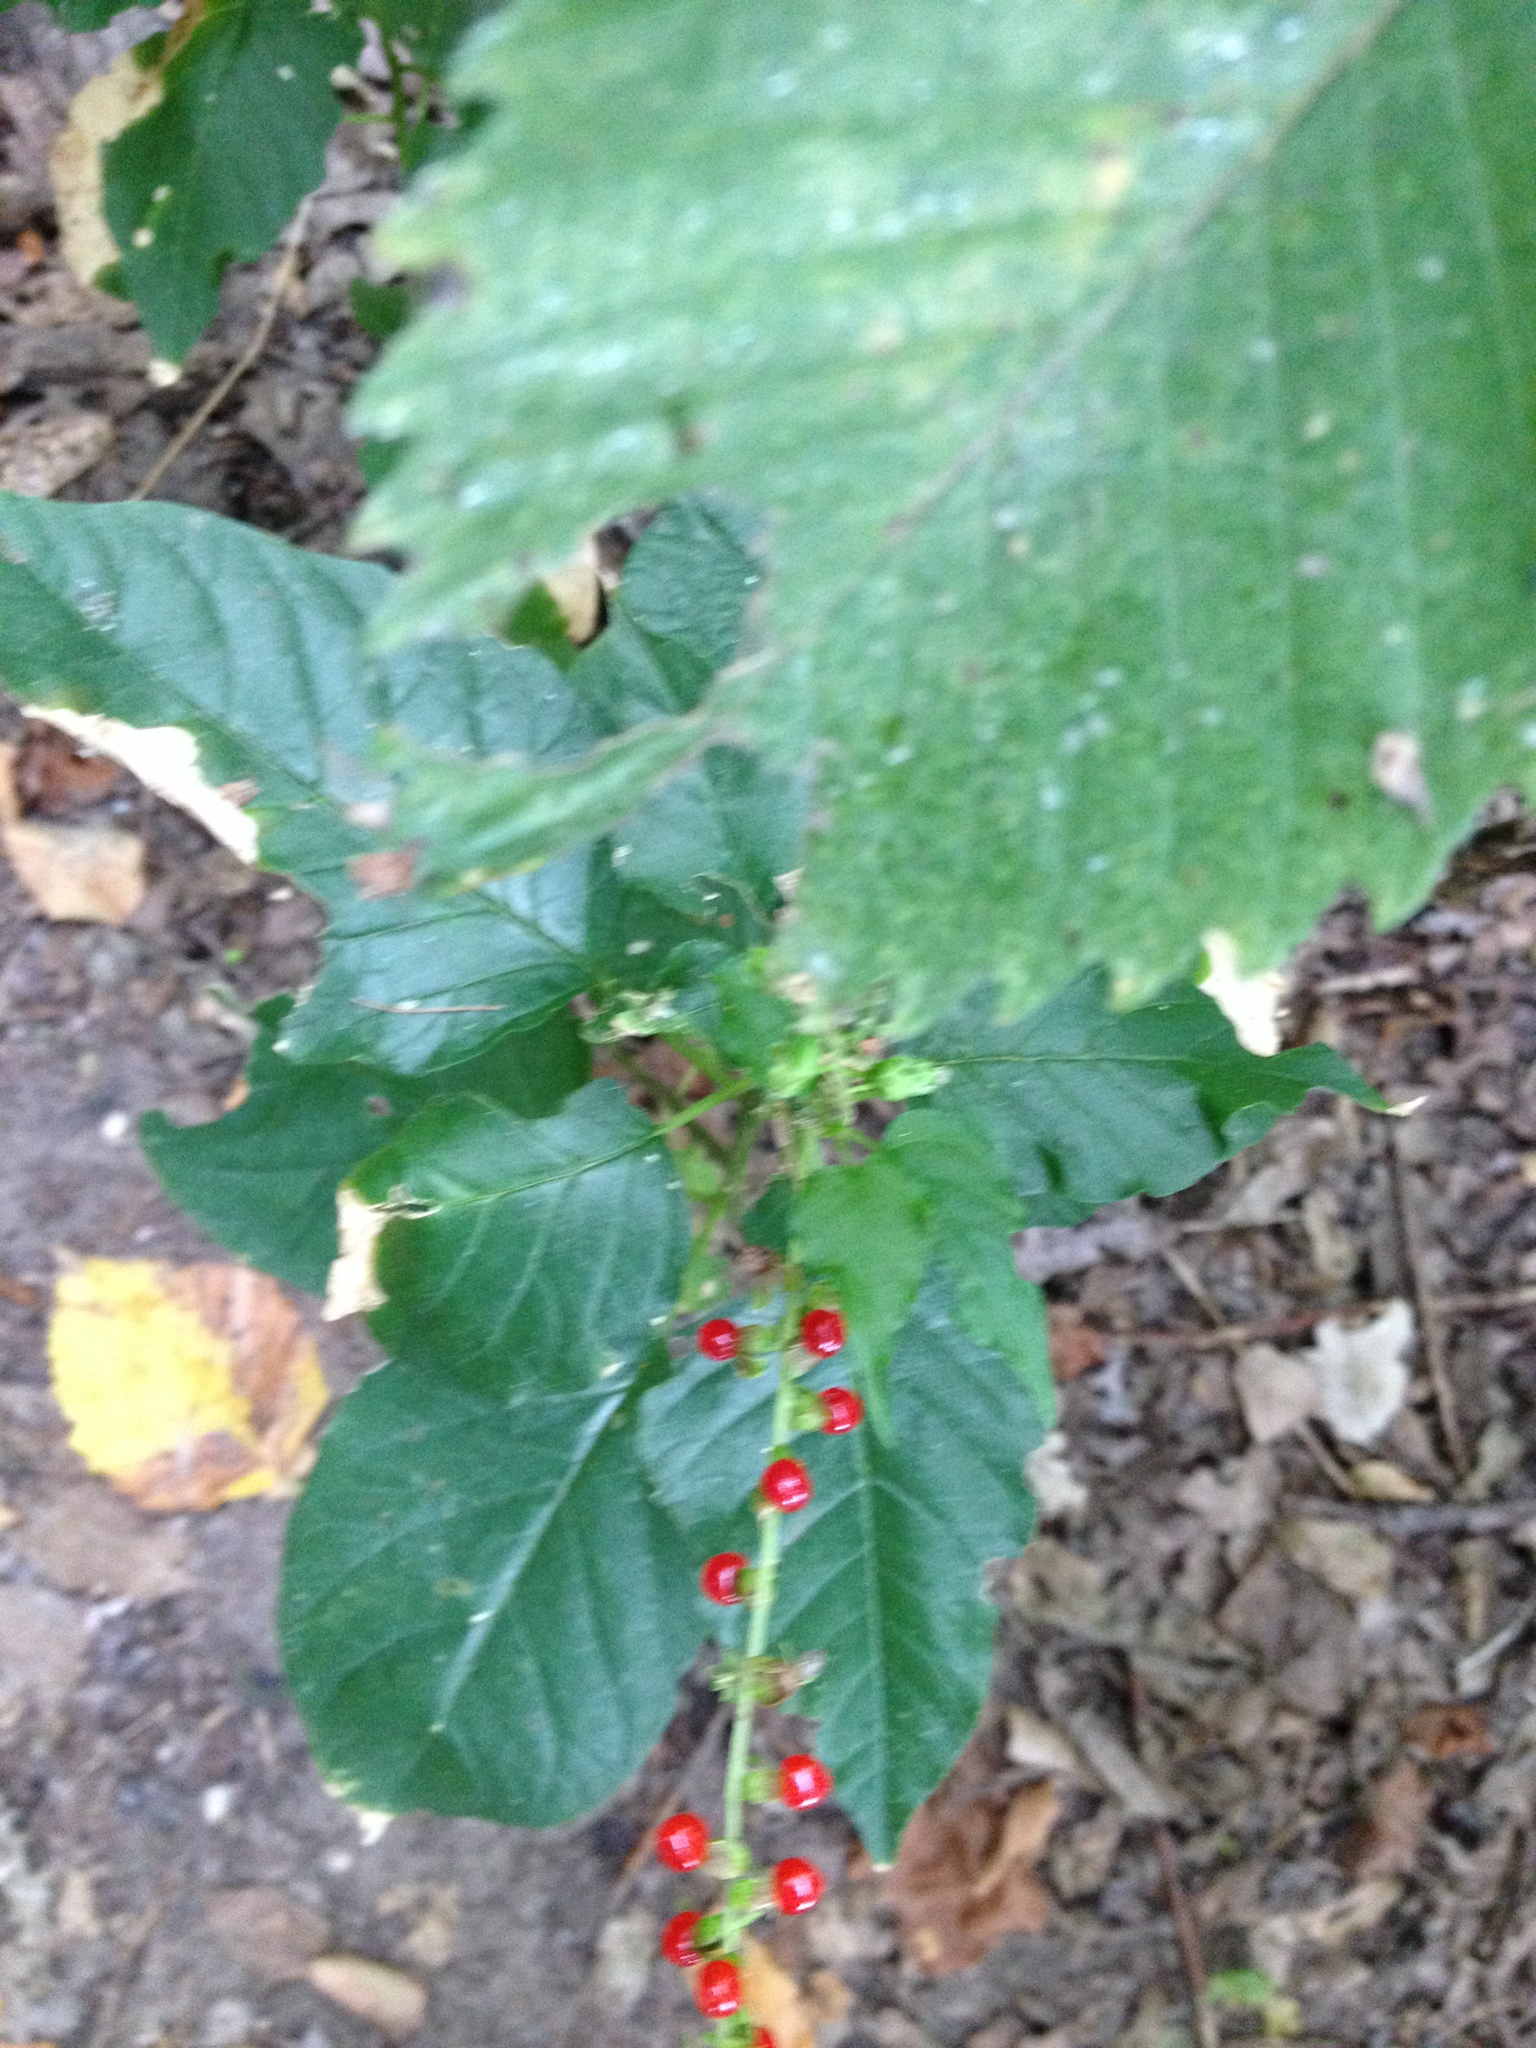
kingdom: Plantae
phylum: Tracheophyta
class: Magnoliopsida
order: Caryophyllales
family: Phytolaccaceae
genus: Rivina
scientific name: Rivina humilis
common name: Rougeplant
